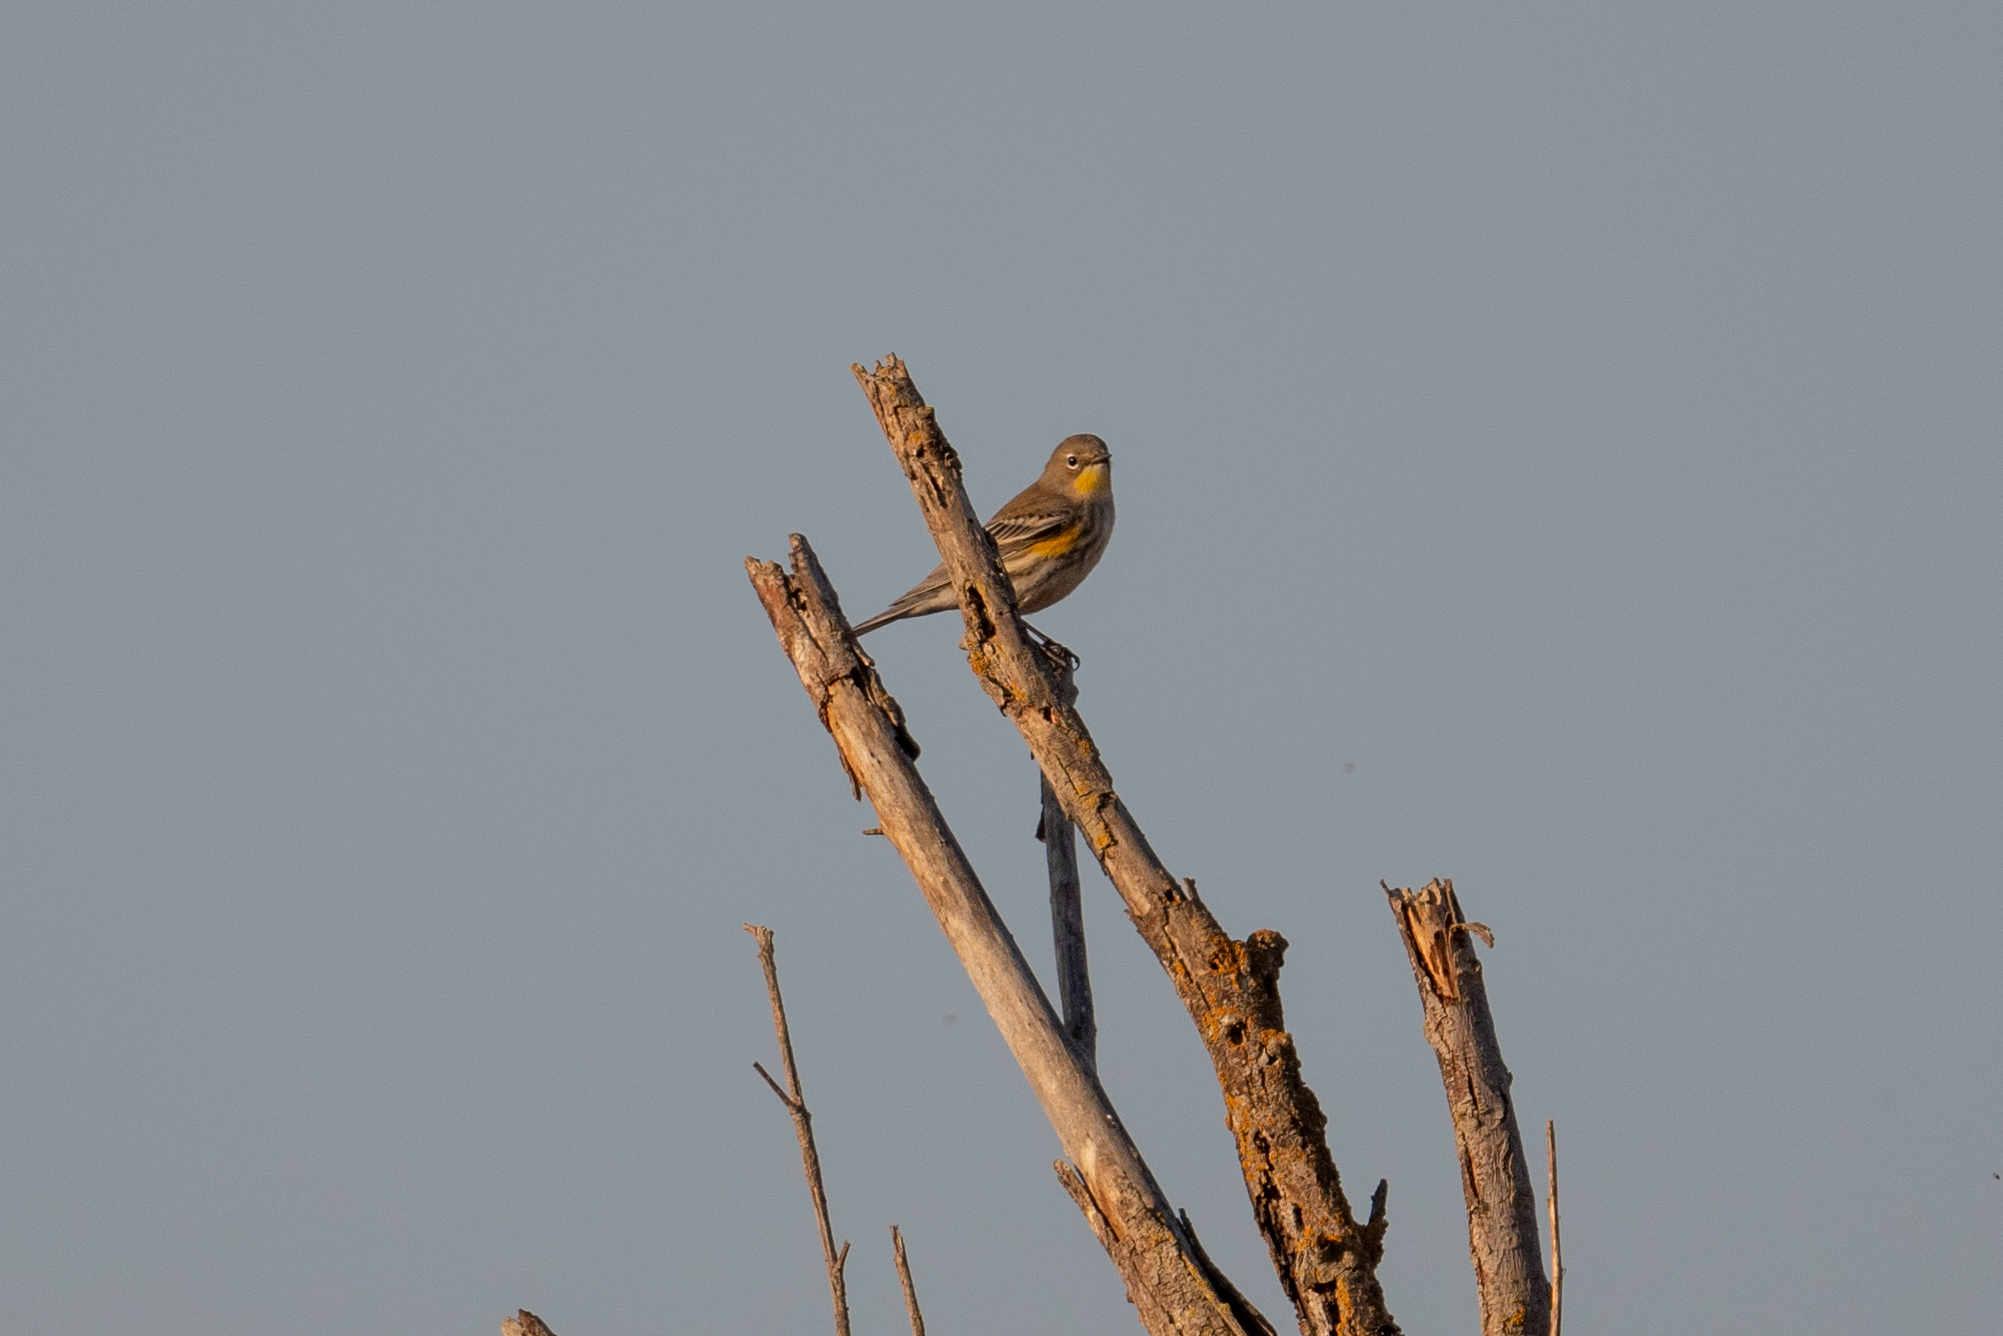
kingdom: Animalia
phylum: Chordata
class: Aves
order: Passeriformes
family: Parulidae
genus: Setophaga
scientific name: Setophaga coronata
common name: Myrtle warbler
